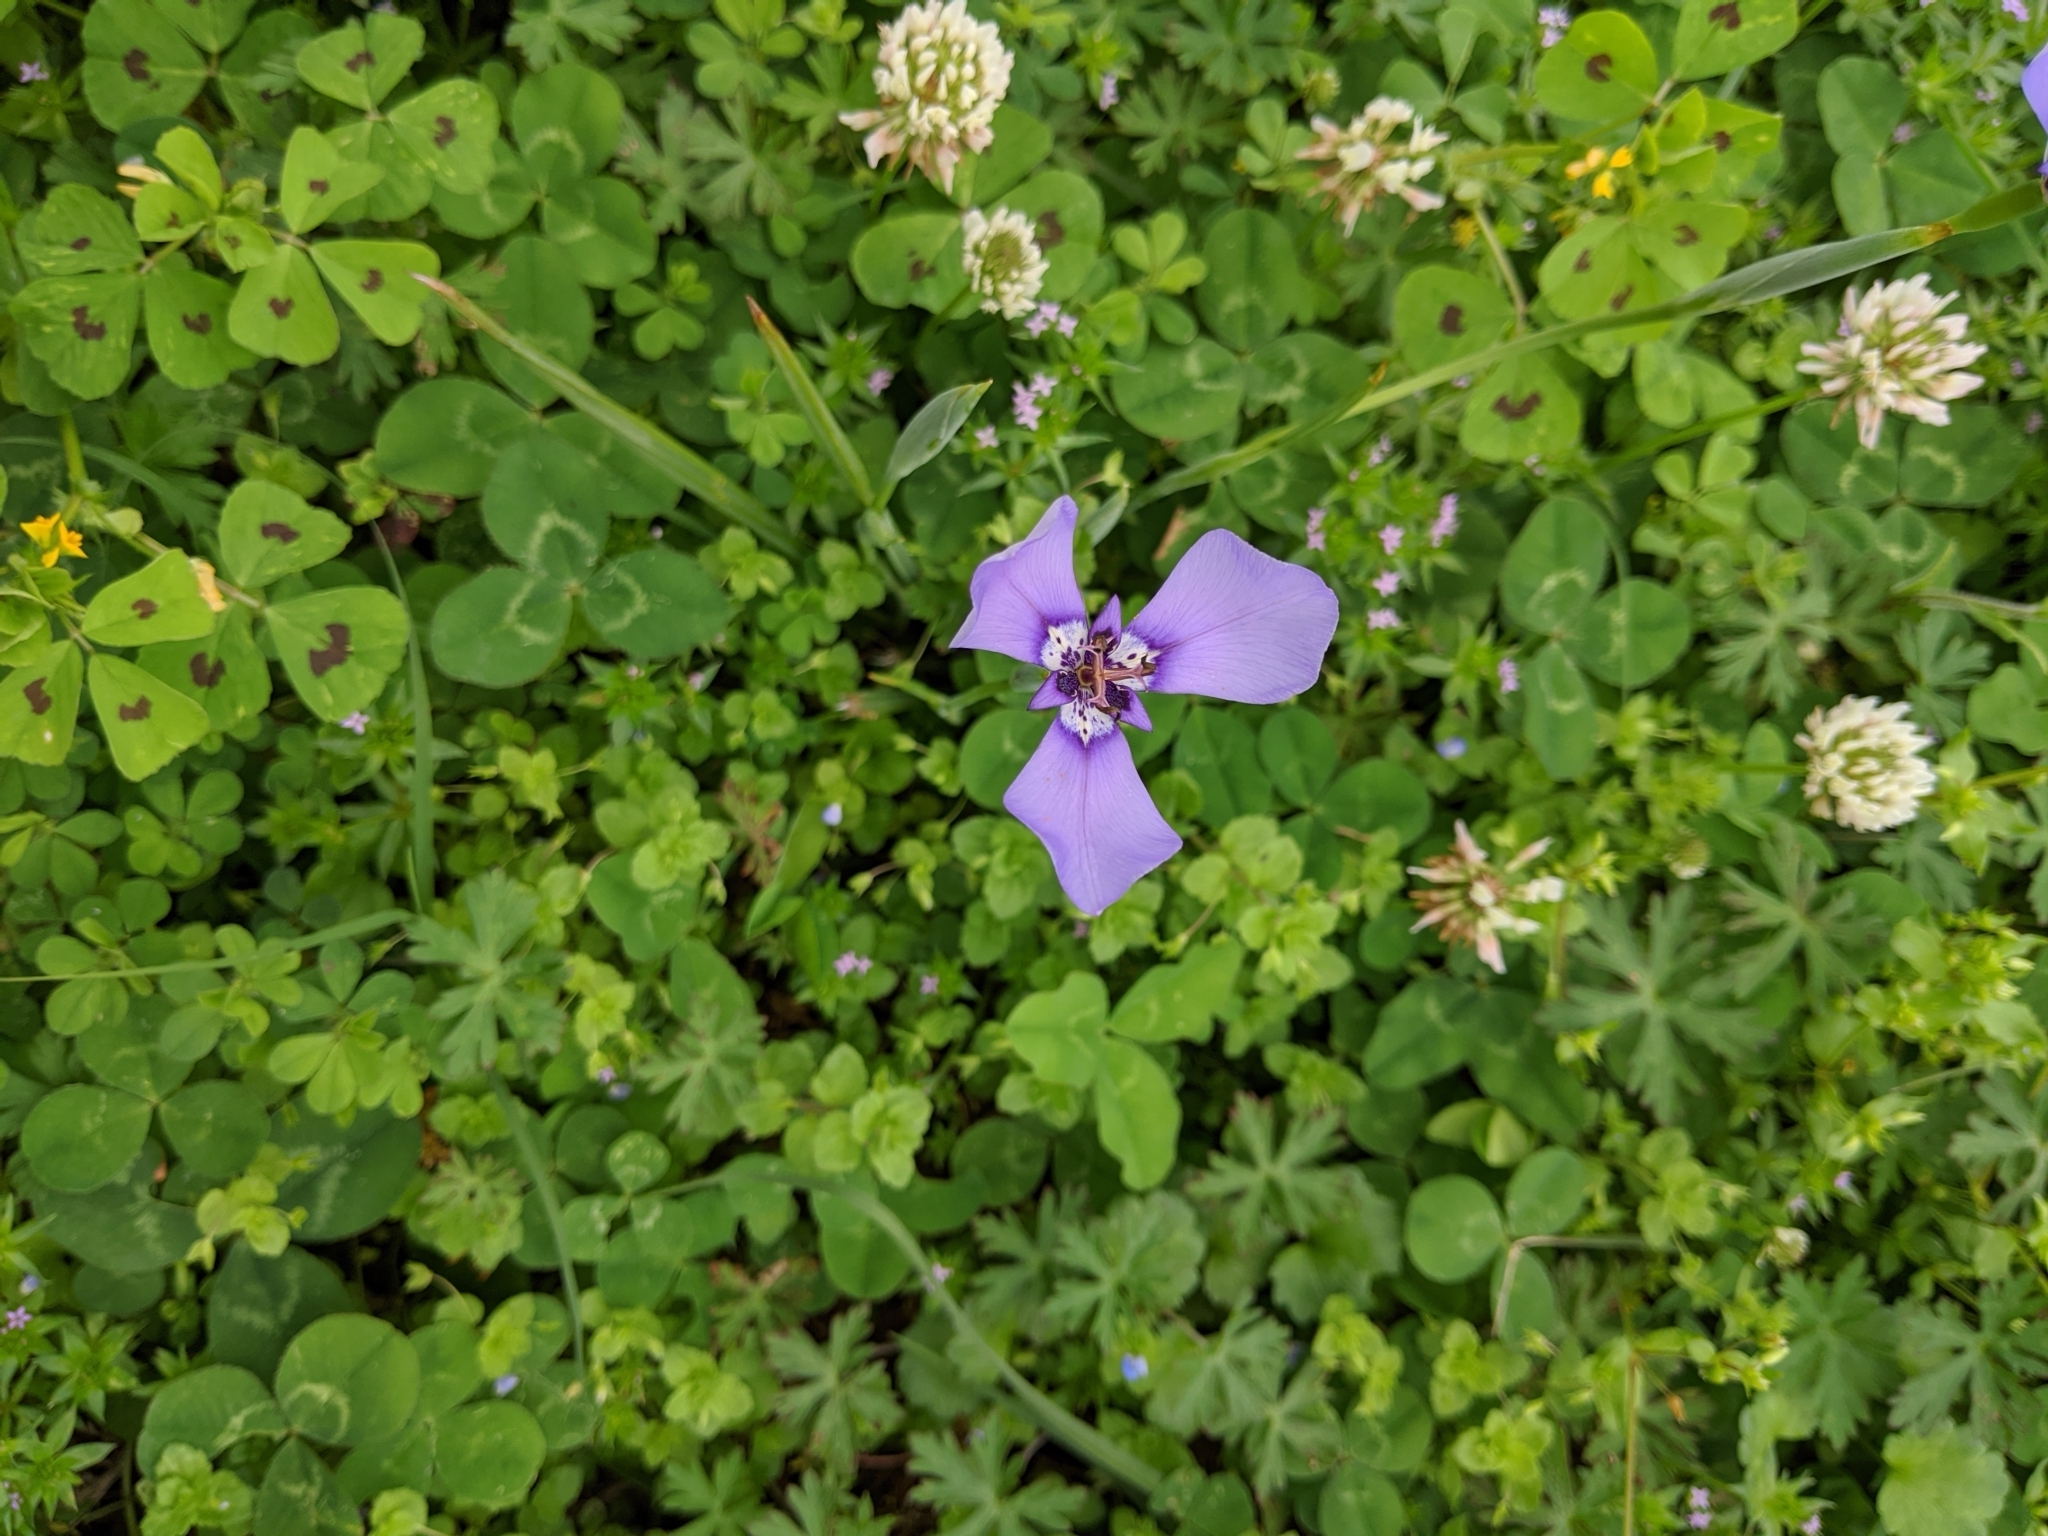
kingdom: Plantae
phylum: Tracheophyta
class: Liliopsida
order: Asparagales
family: Iridaceae
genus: Herbertia
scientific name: Herbertia lahue
